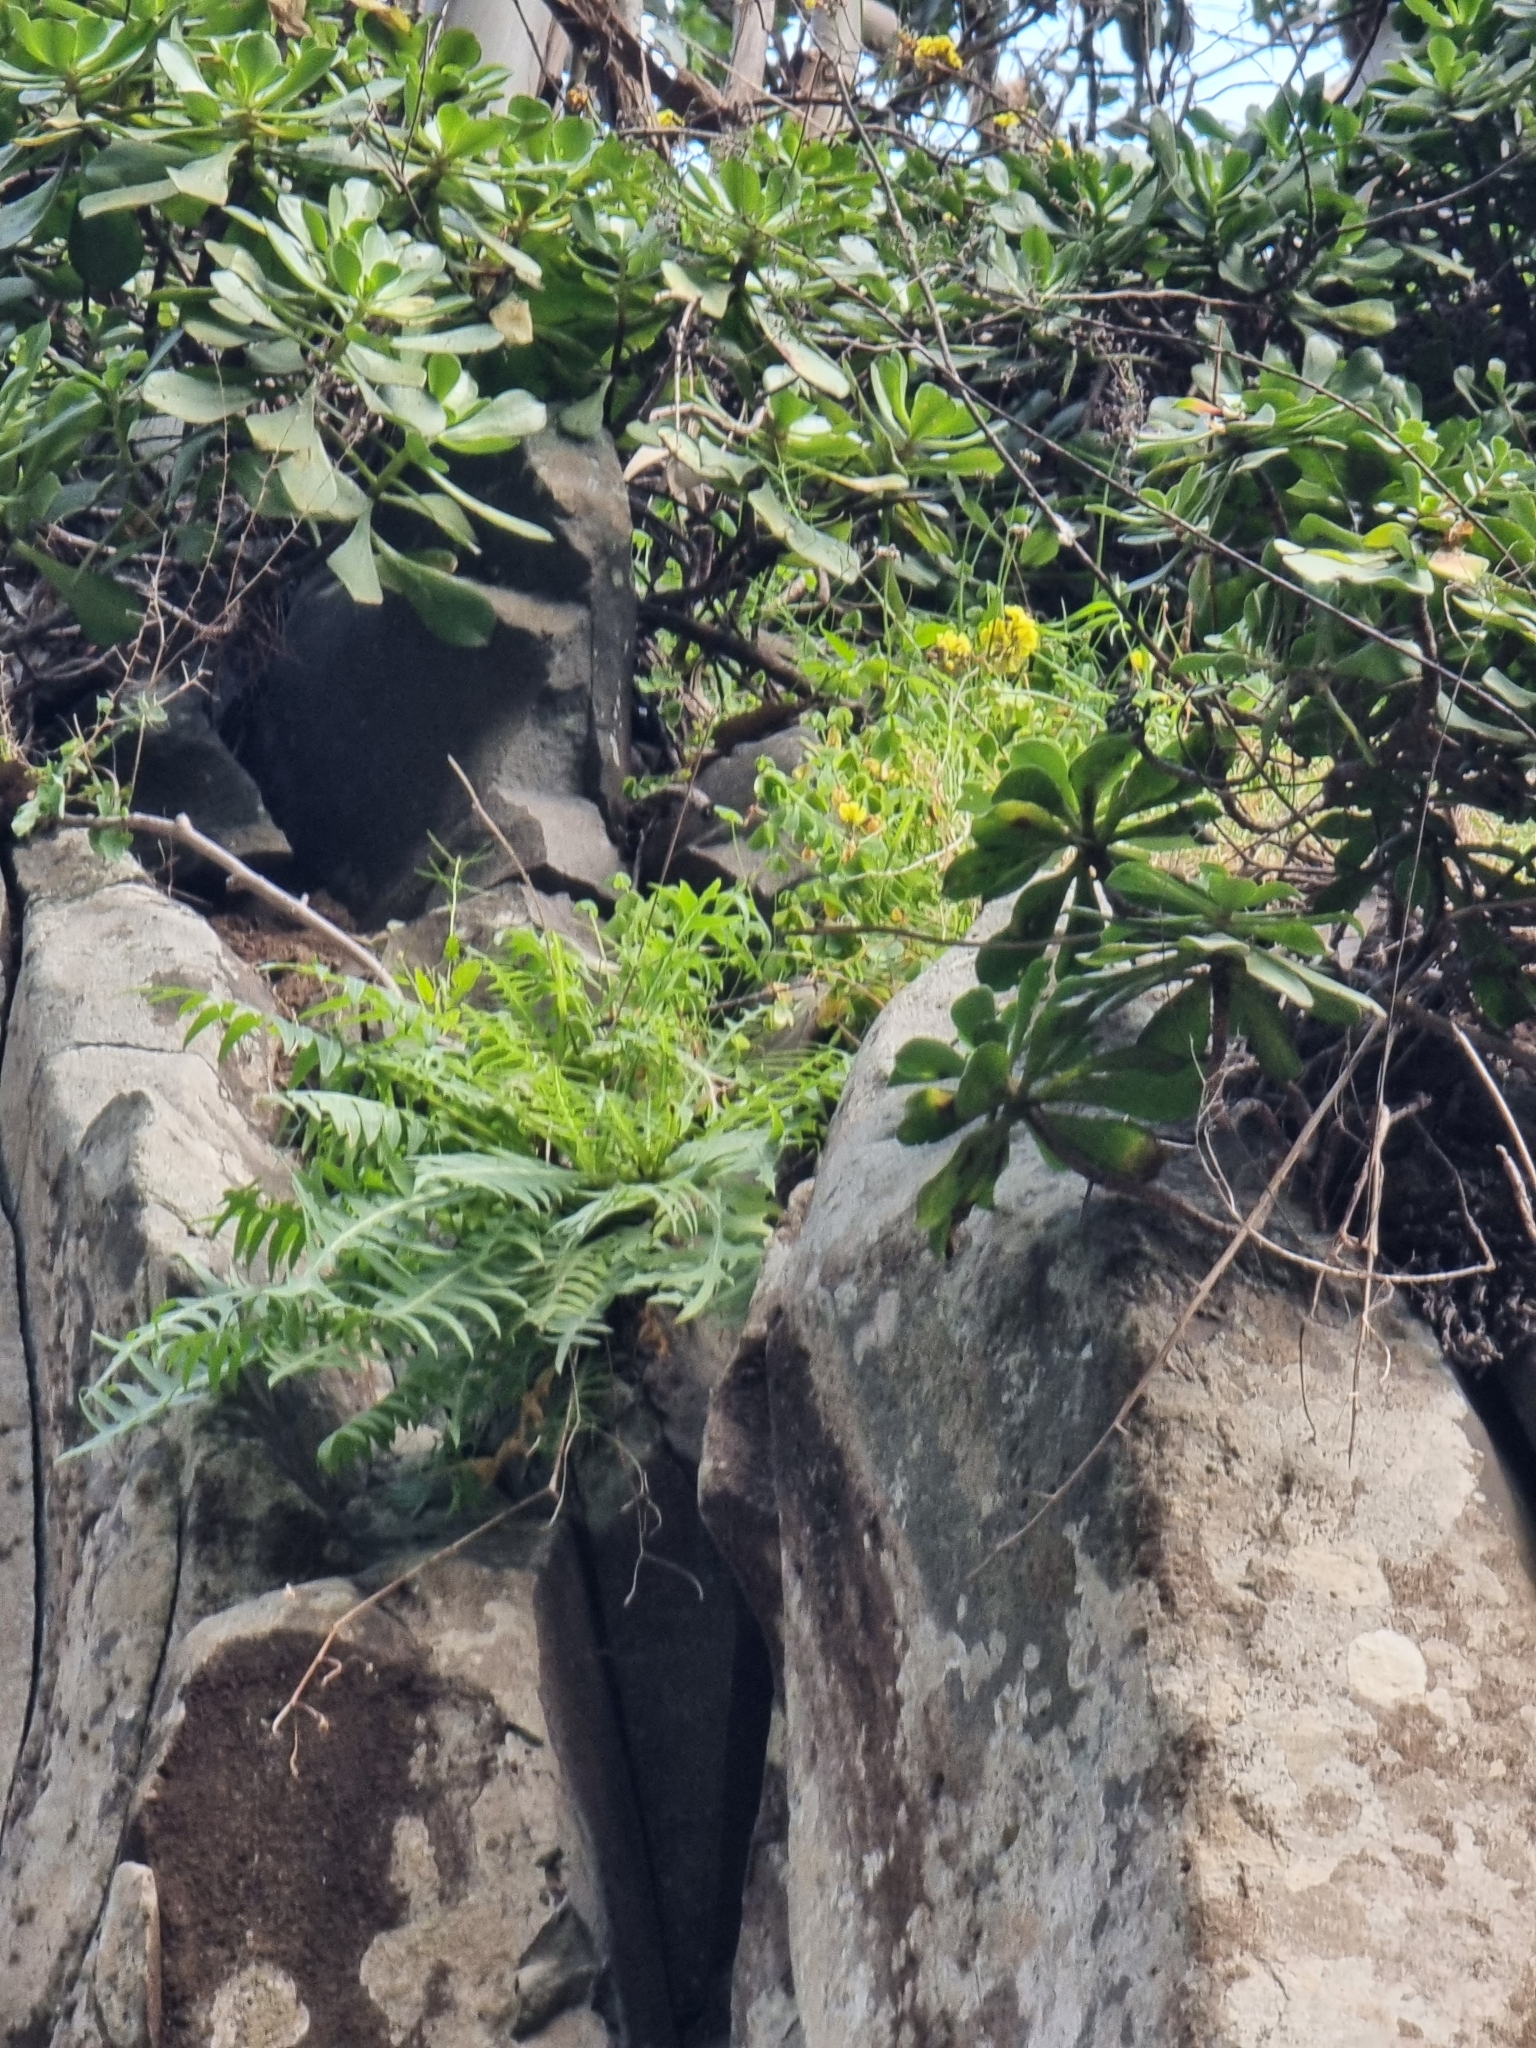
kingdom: Plantae
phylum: Tracheophyta
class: Magnoliopsida
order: Asterales
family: Asteraceae
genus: Sonchus
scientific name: Sonchus ustulatus
